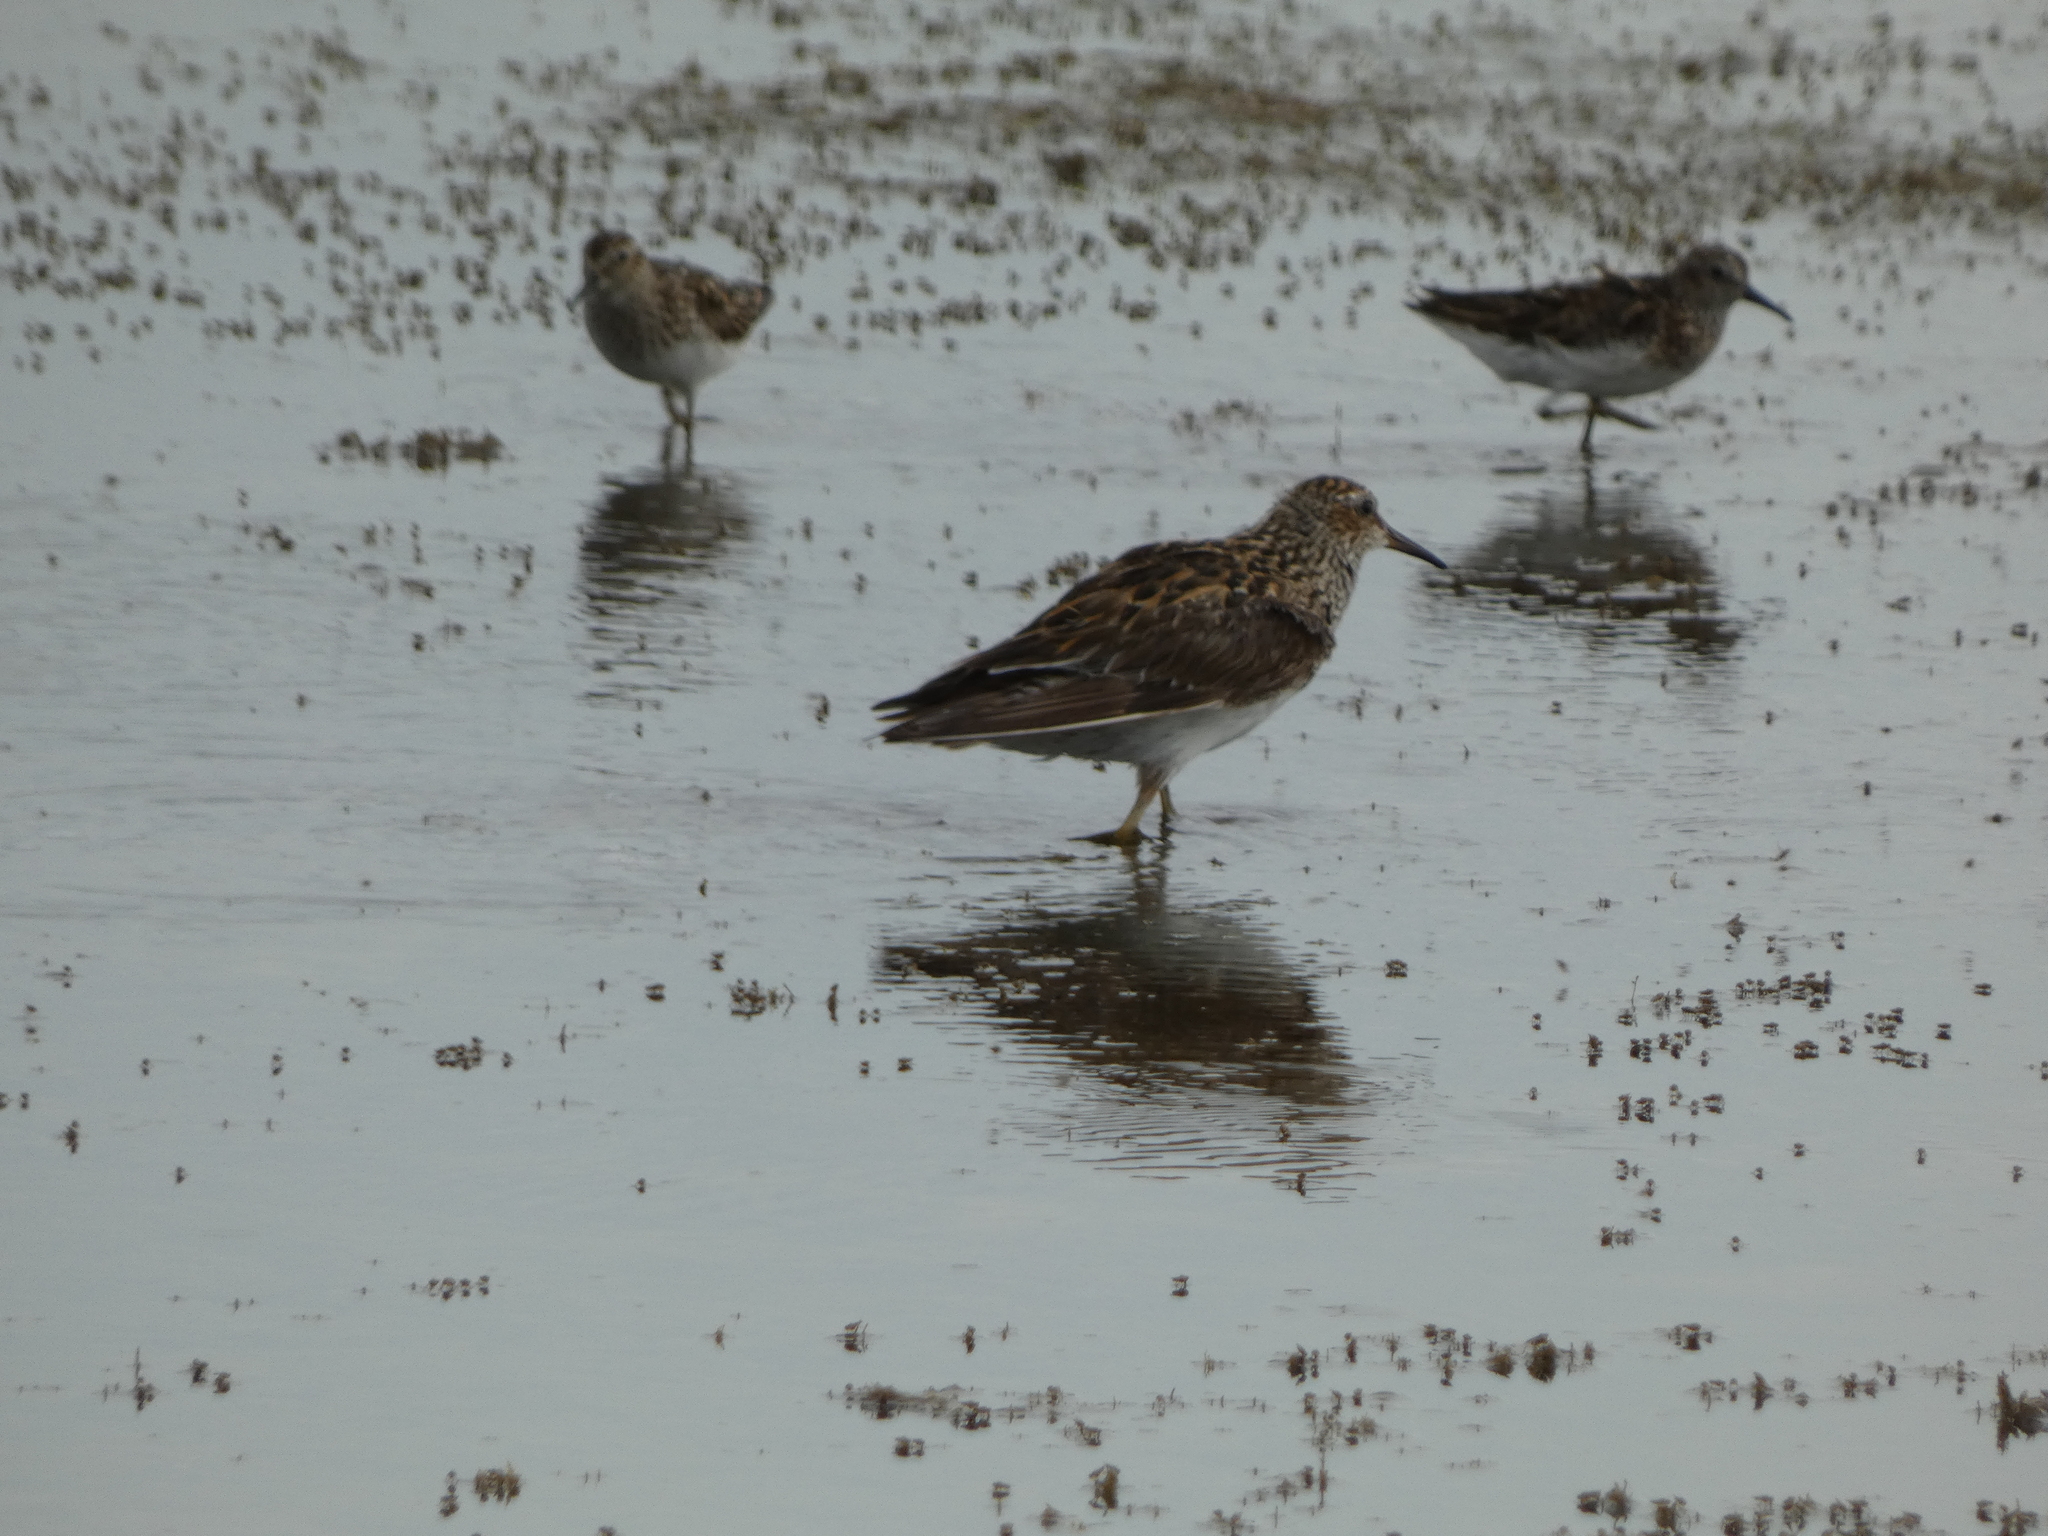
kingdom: Animalia
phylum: Chordata
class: Aves
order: Charadriiformes
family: Scolopacidae
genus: Calidris
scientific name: Calidris melanotos
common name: Pectoral sandpiper
